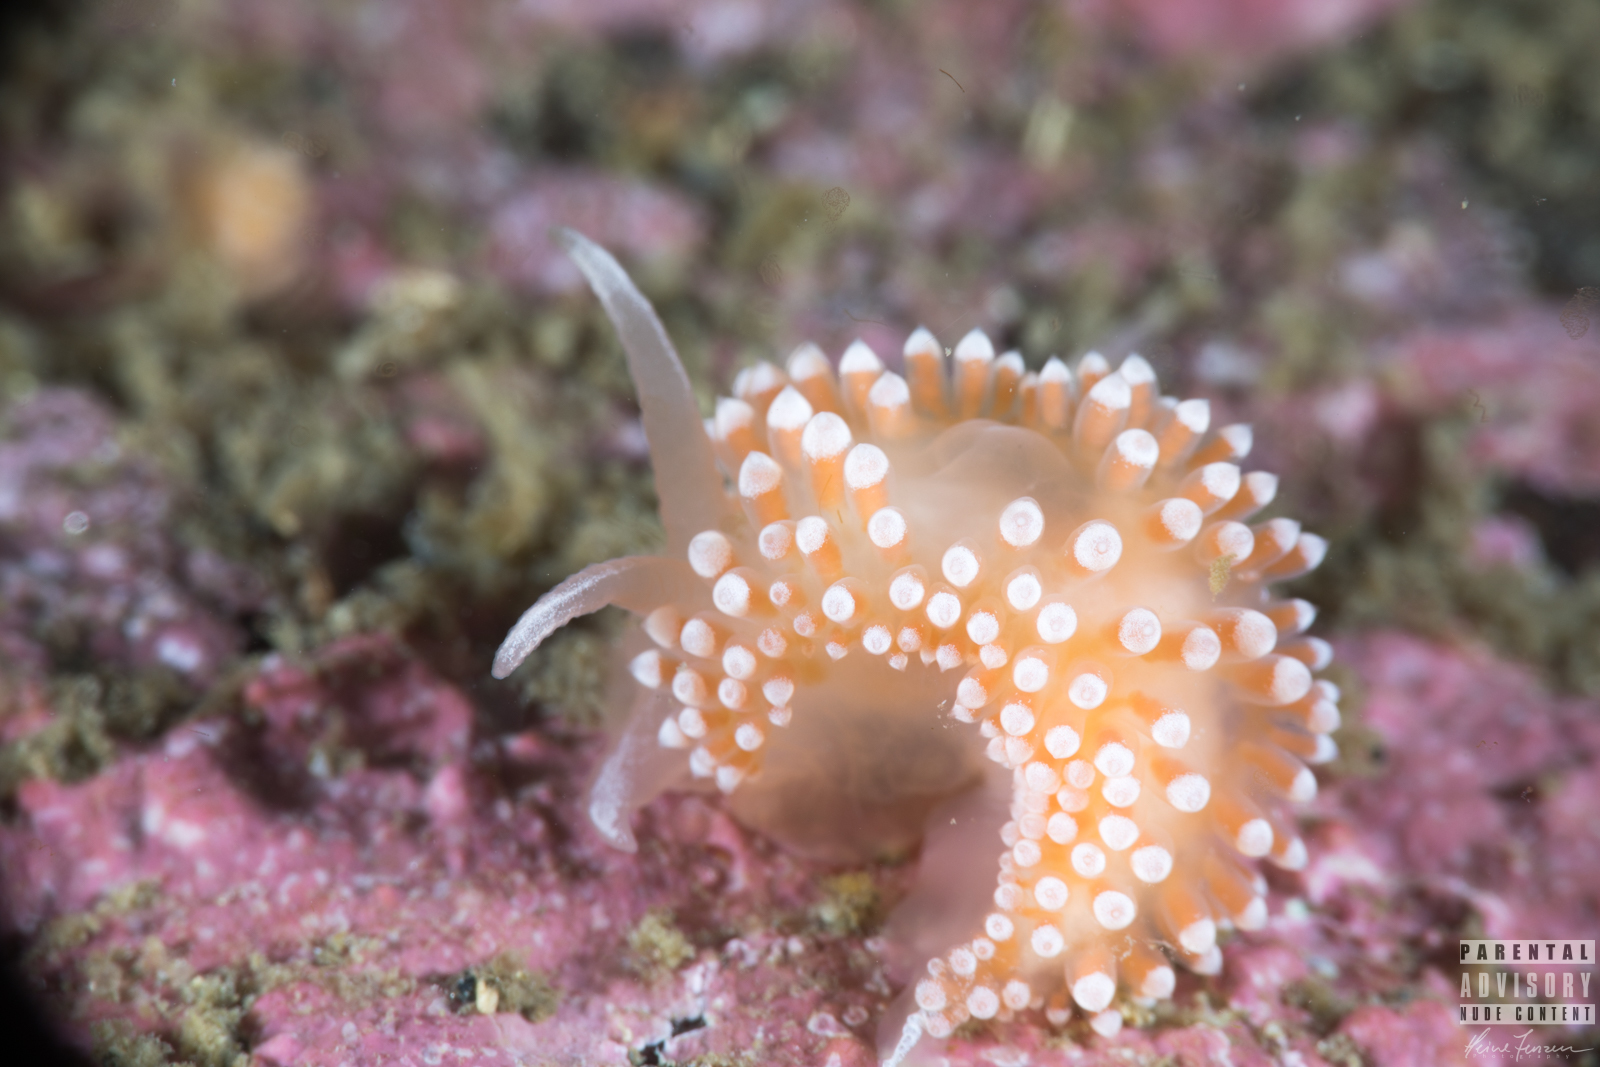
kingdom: Animalia
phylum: Mollusca
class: Gastropoda
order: Nudibranchia
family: Coryphellidae
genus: Coryphella
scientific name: Coryphella verrucosa
